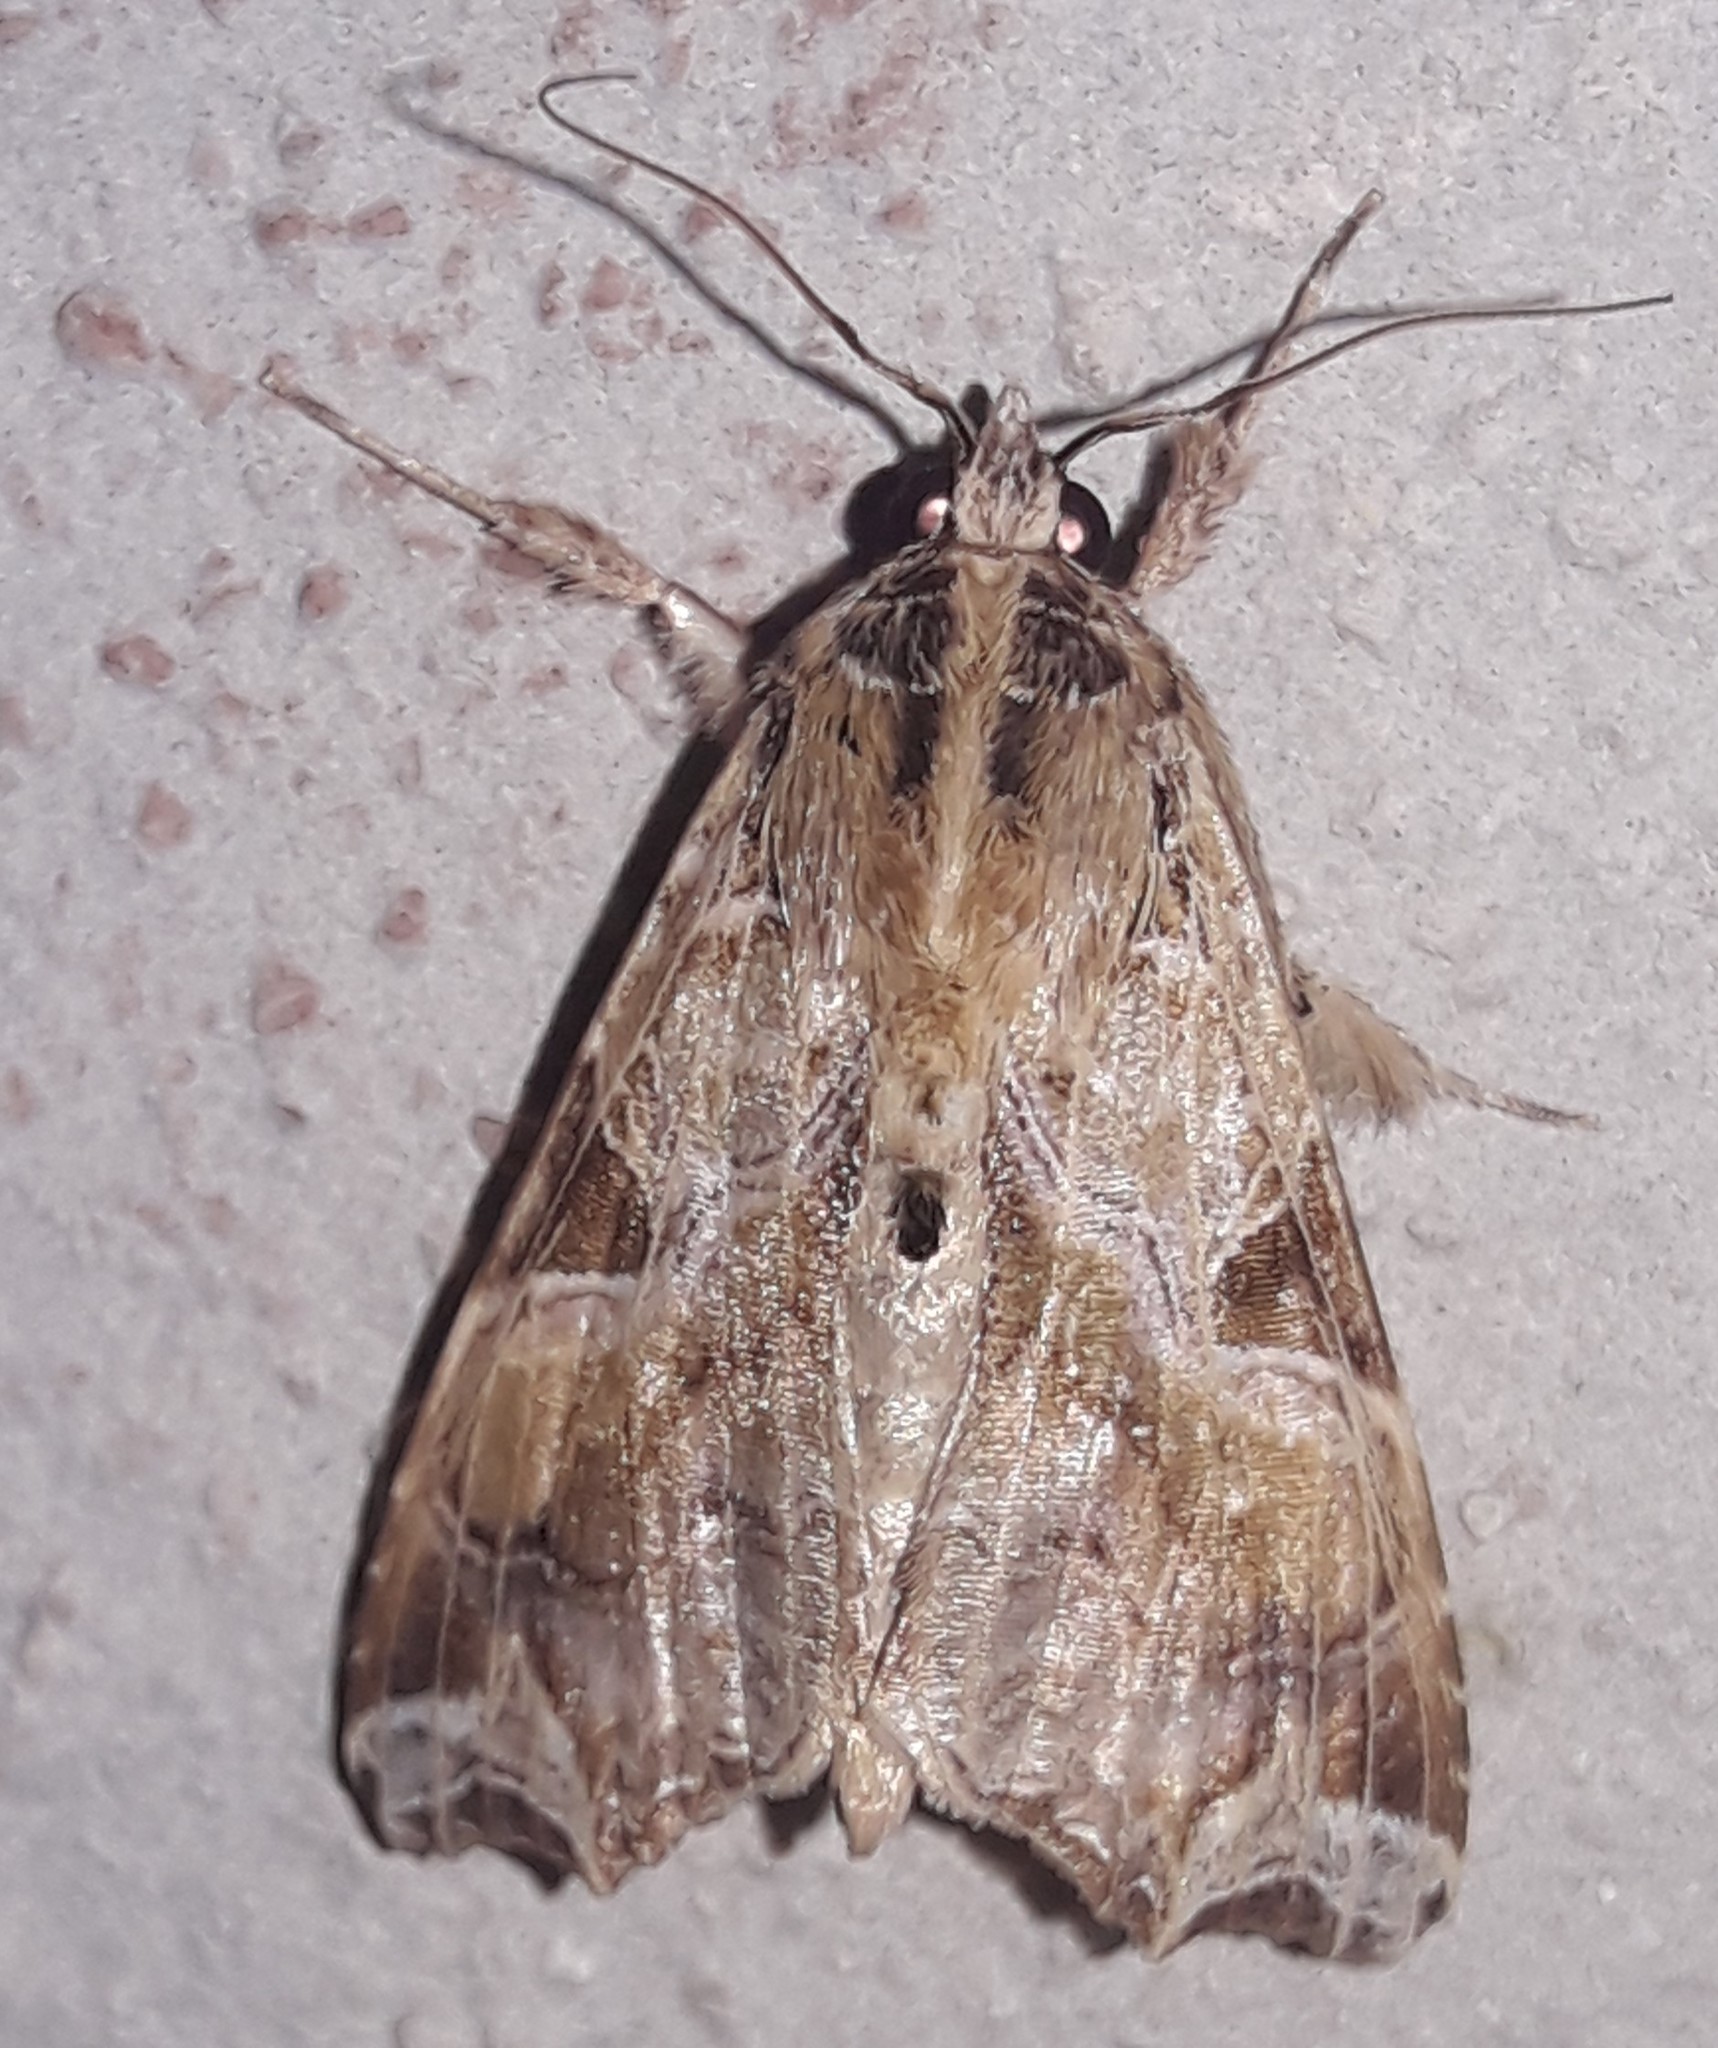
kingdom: Animalia
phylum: Arthropoda
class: Insecta
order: Lepidoptera
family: Noctuidae
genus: Callopistria
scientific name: Callopistria floridensis
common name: Florida fern moth
